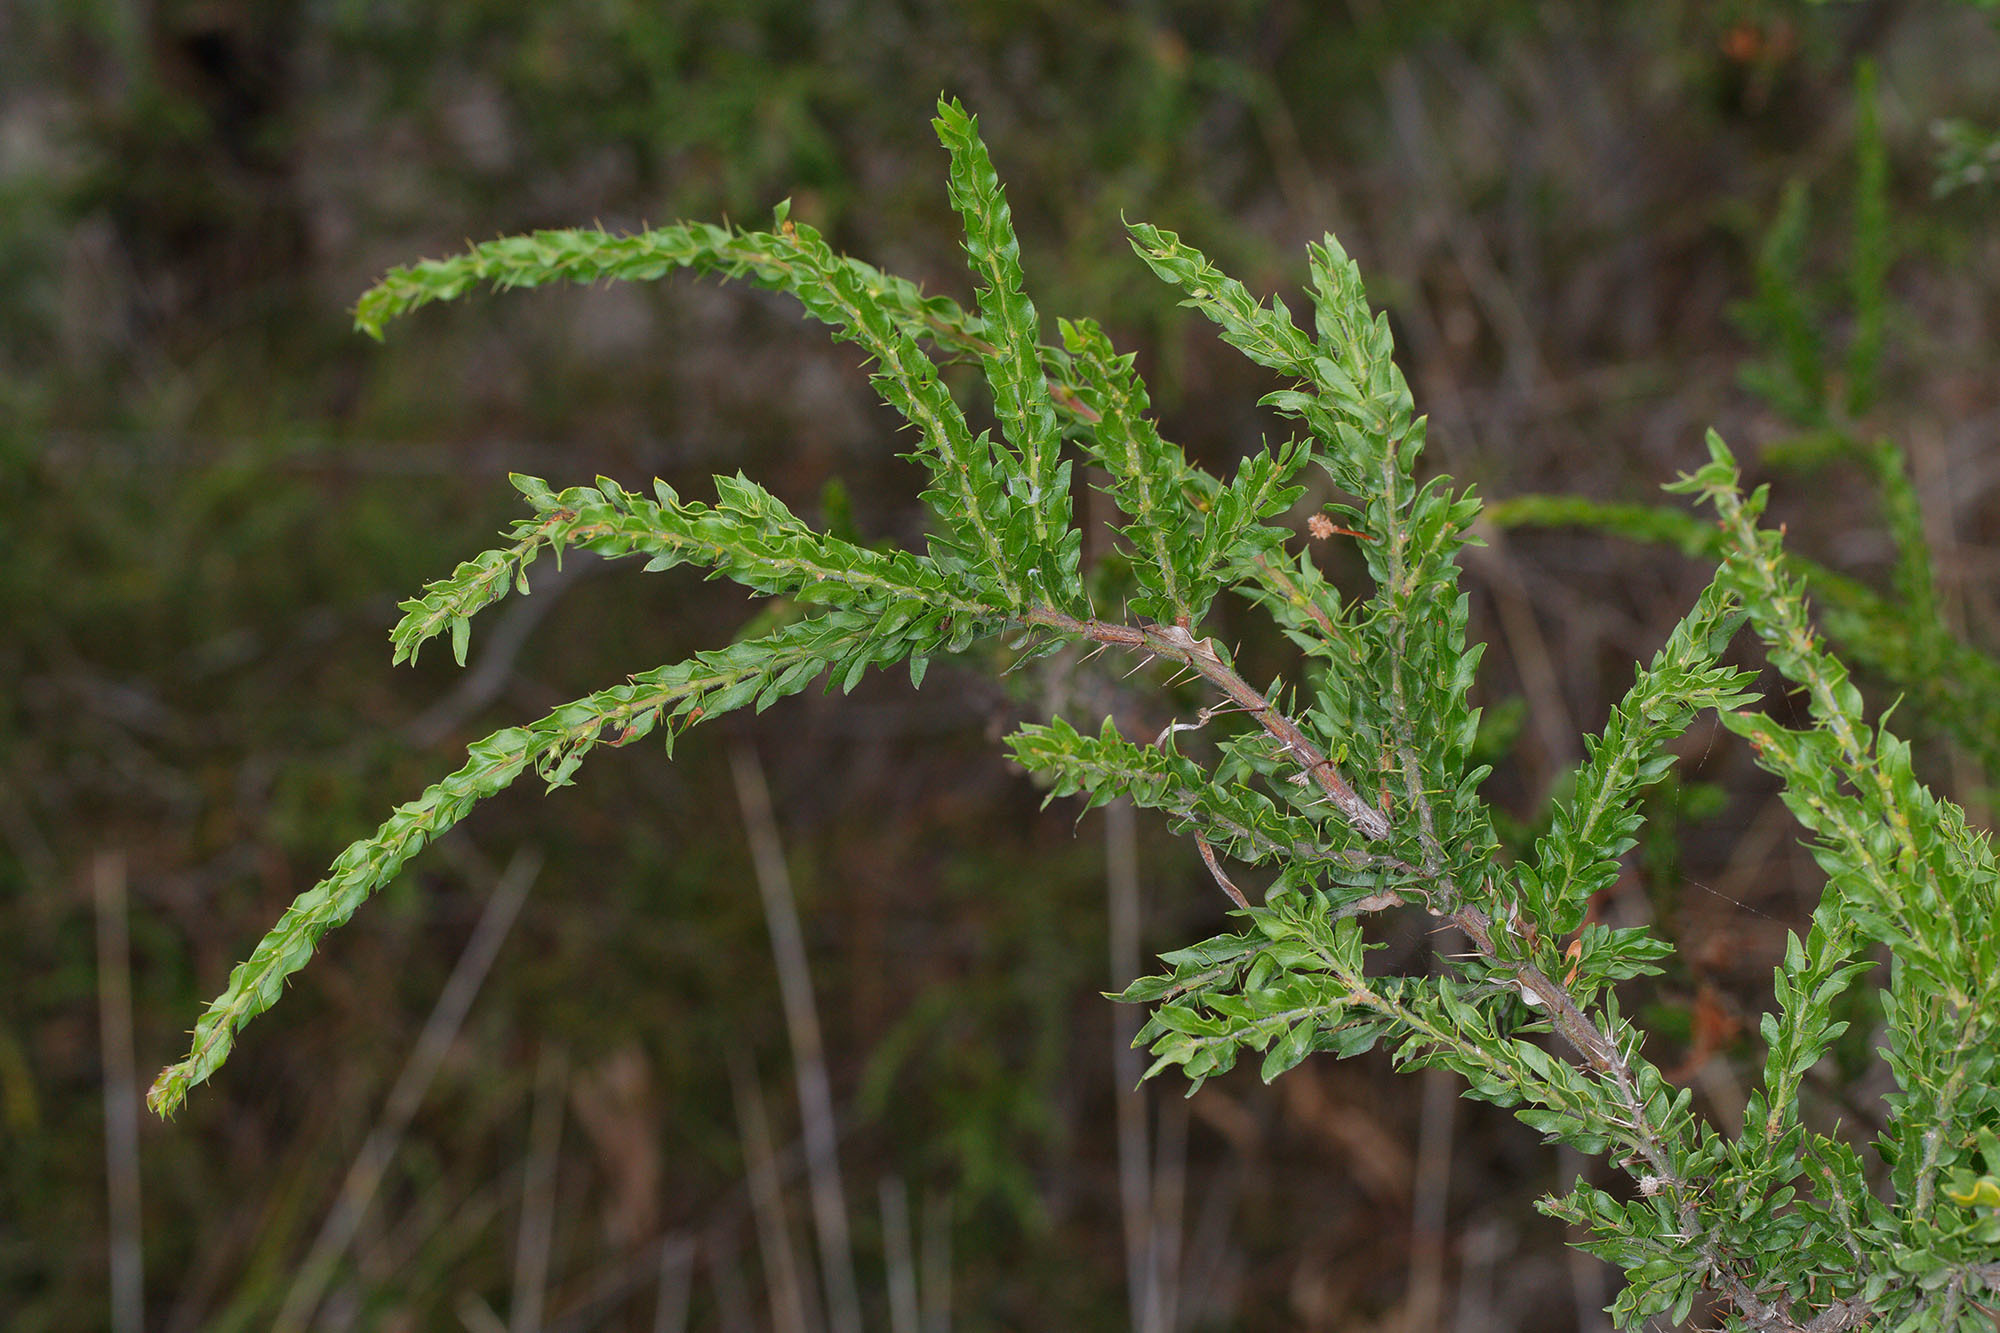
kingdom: Plantae
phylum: Tracheophyta
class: Magnoliopsida
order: Fabales
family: Fabaceae
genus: Acacia
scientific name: Acacia paradoxa
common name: Paradox acacia
